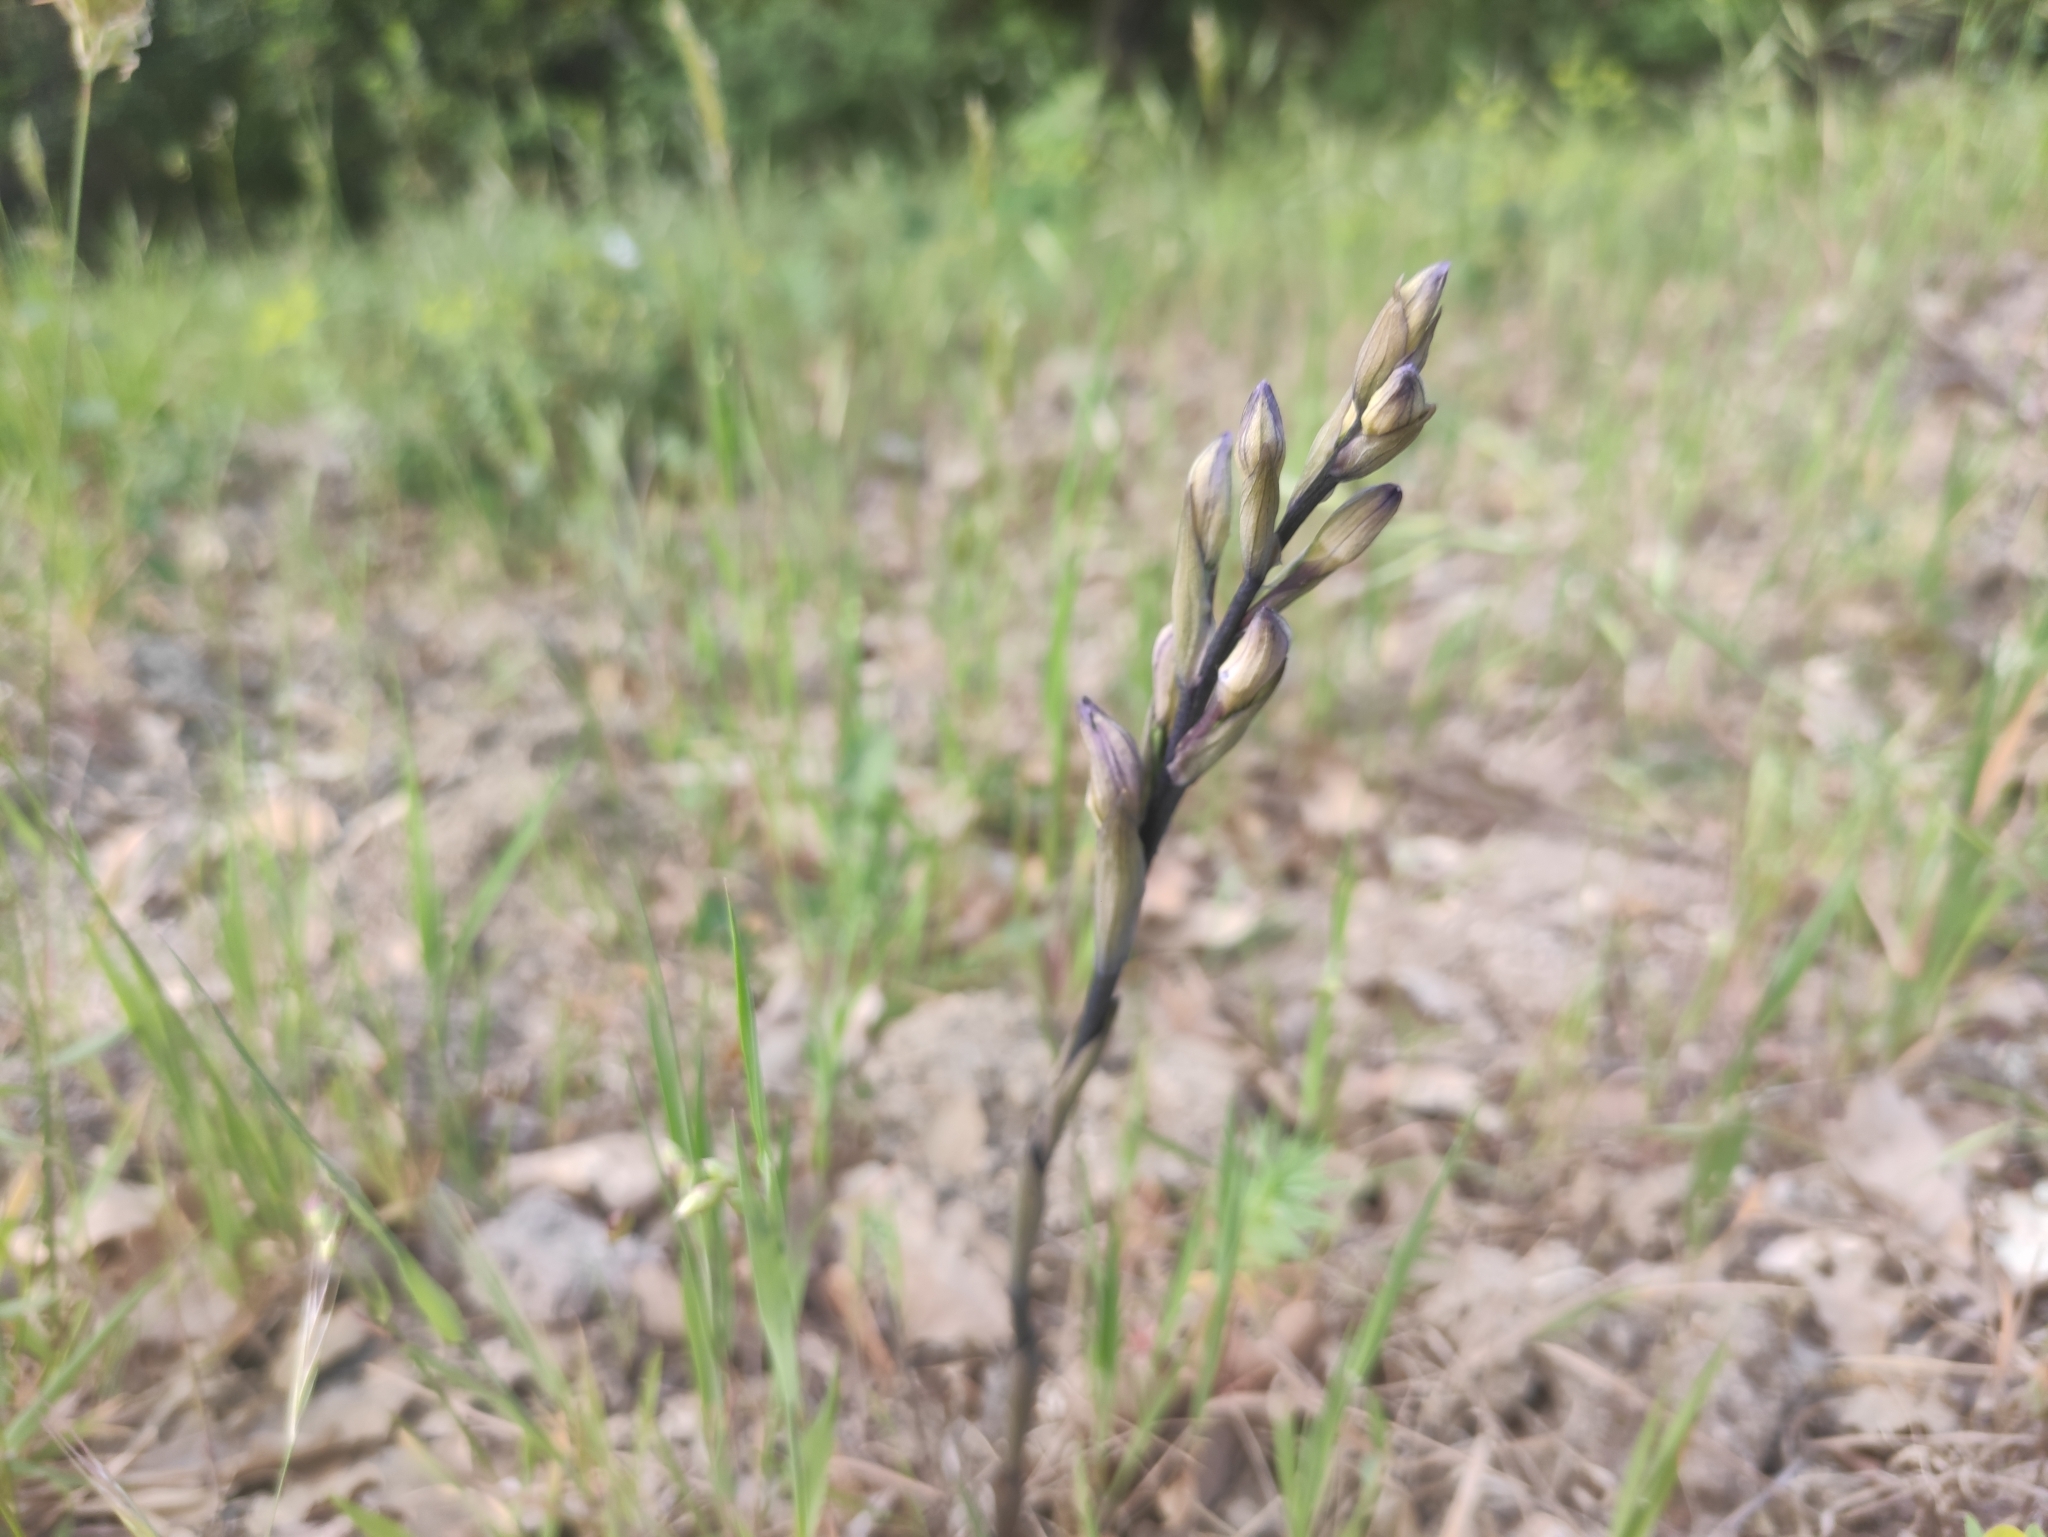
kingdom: Plantae
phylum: Tracheophyta
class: Liliopsida
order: Asparagales
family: Orchidaceae
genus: Limodorum
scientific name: Limodorum abortivum
